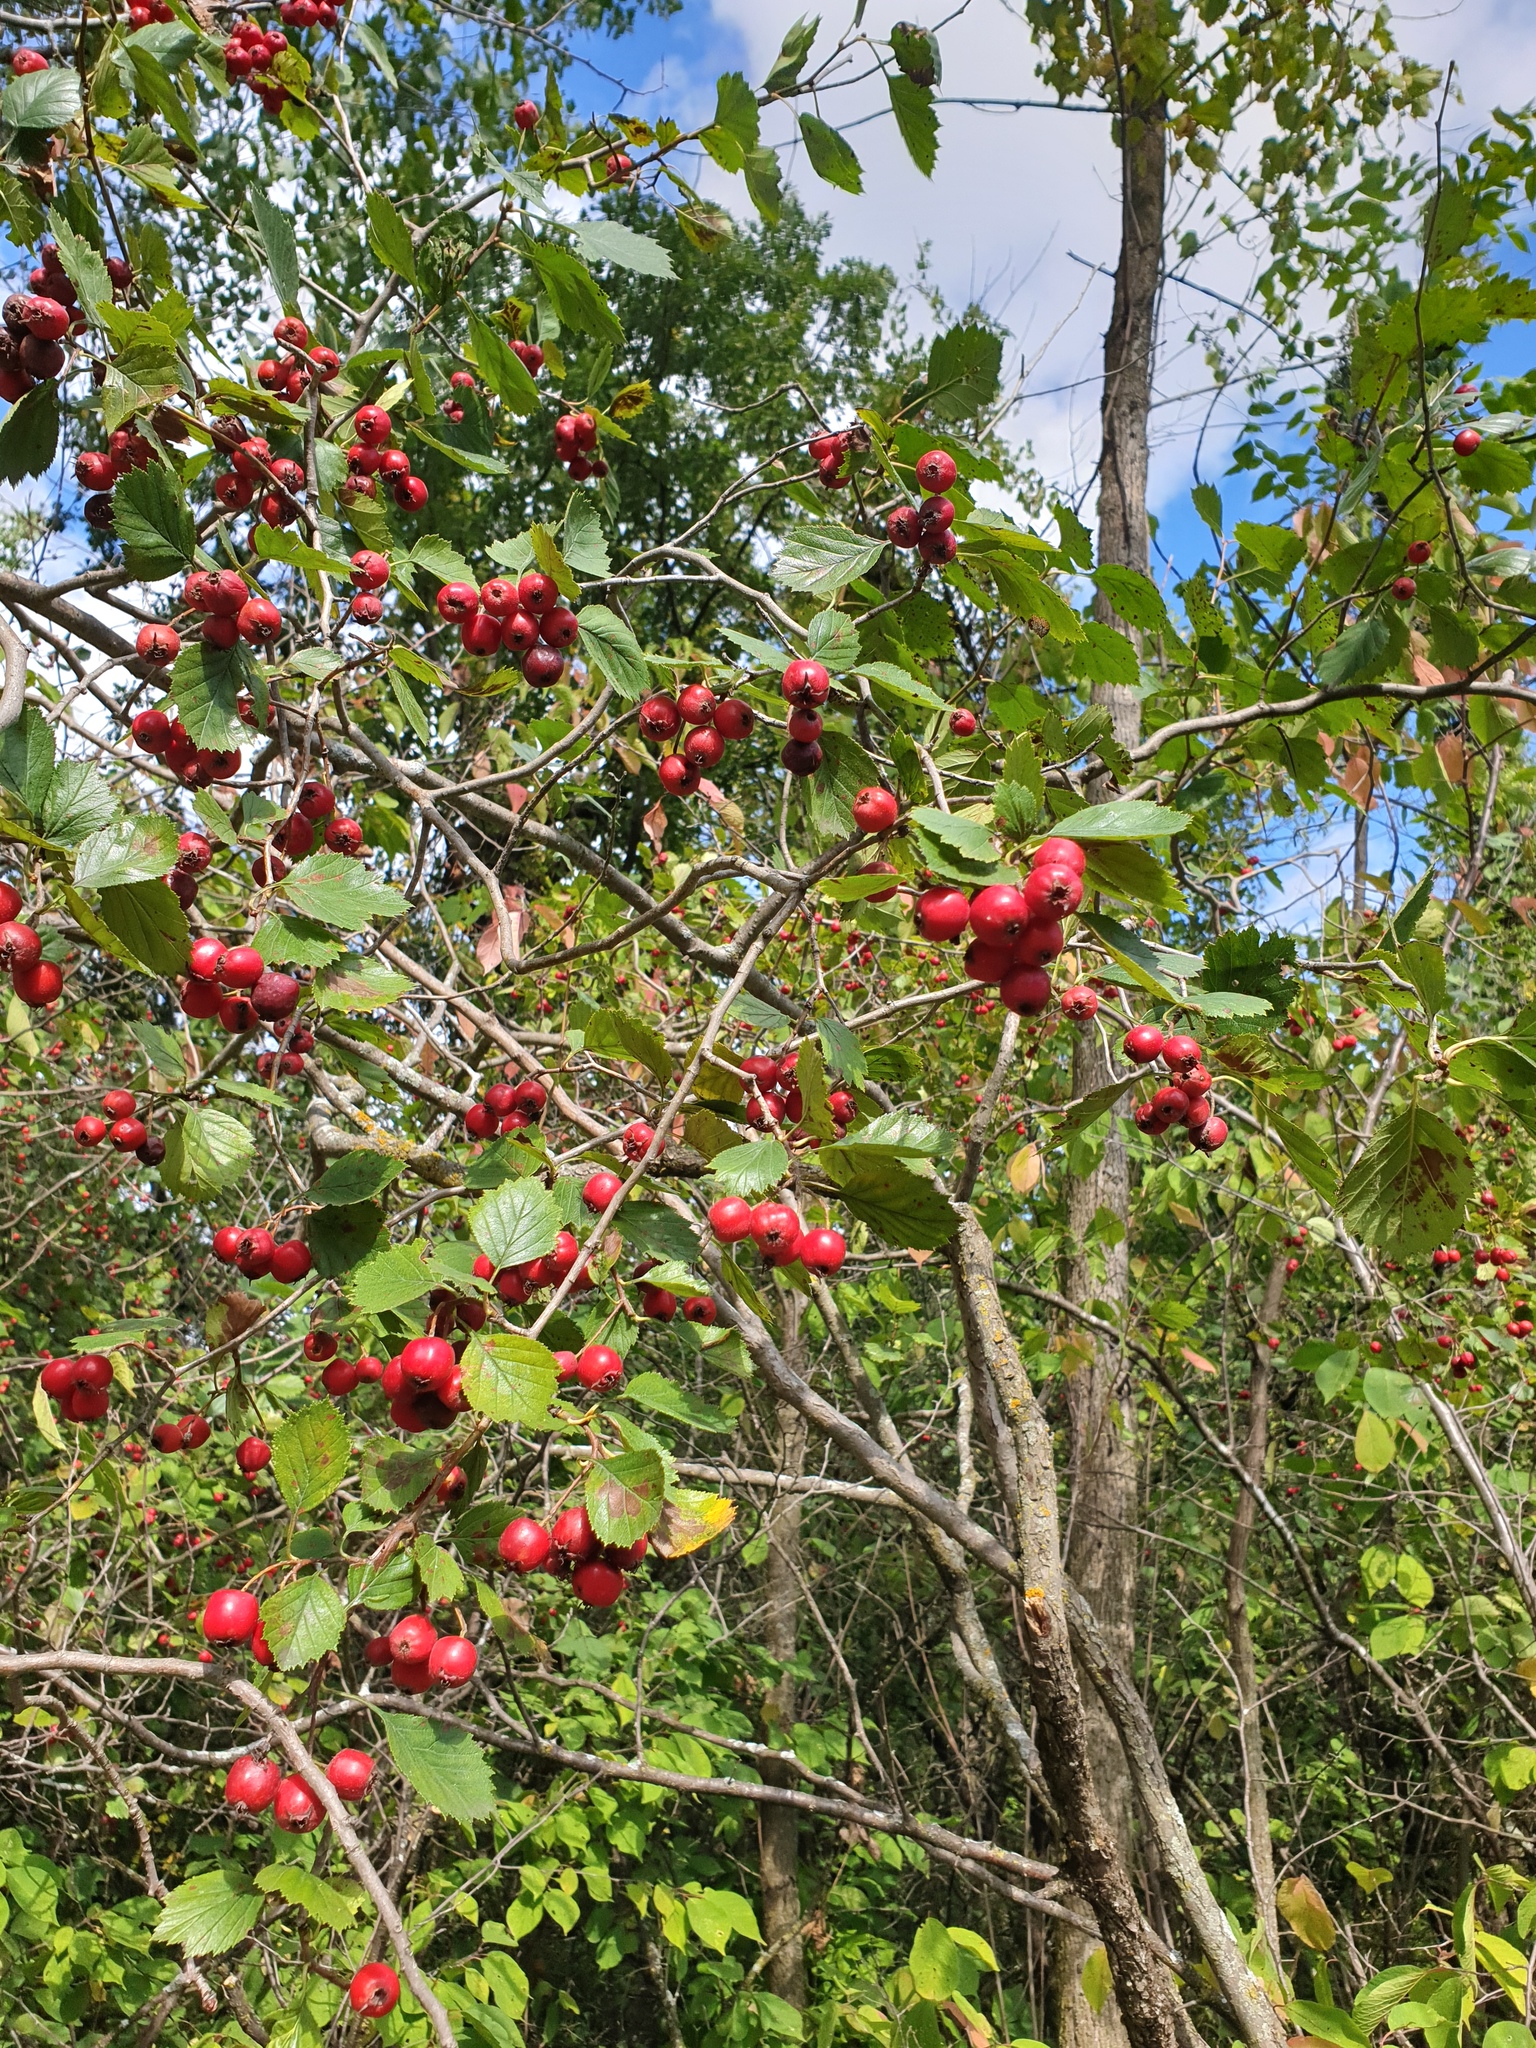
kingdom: Plantae
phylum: Tracheophyta
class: Magnoliopsida
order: Rosales
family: Rosaceae
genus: Crataegus
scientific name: Crataegus chrysocarpa
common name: Fire-berry hawthorn
